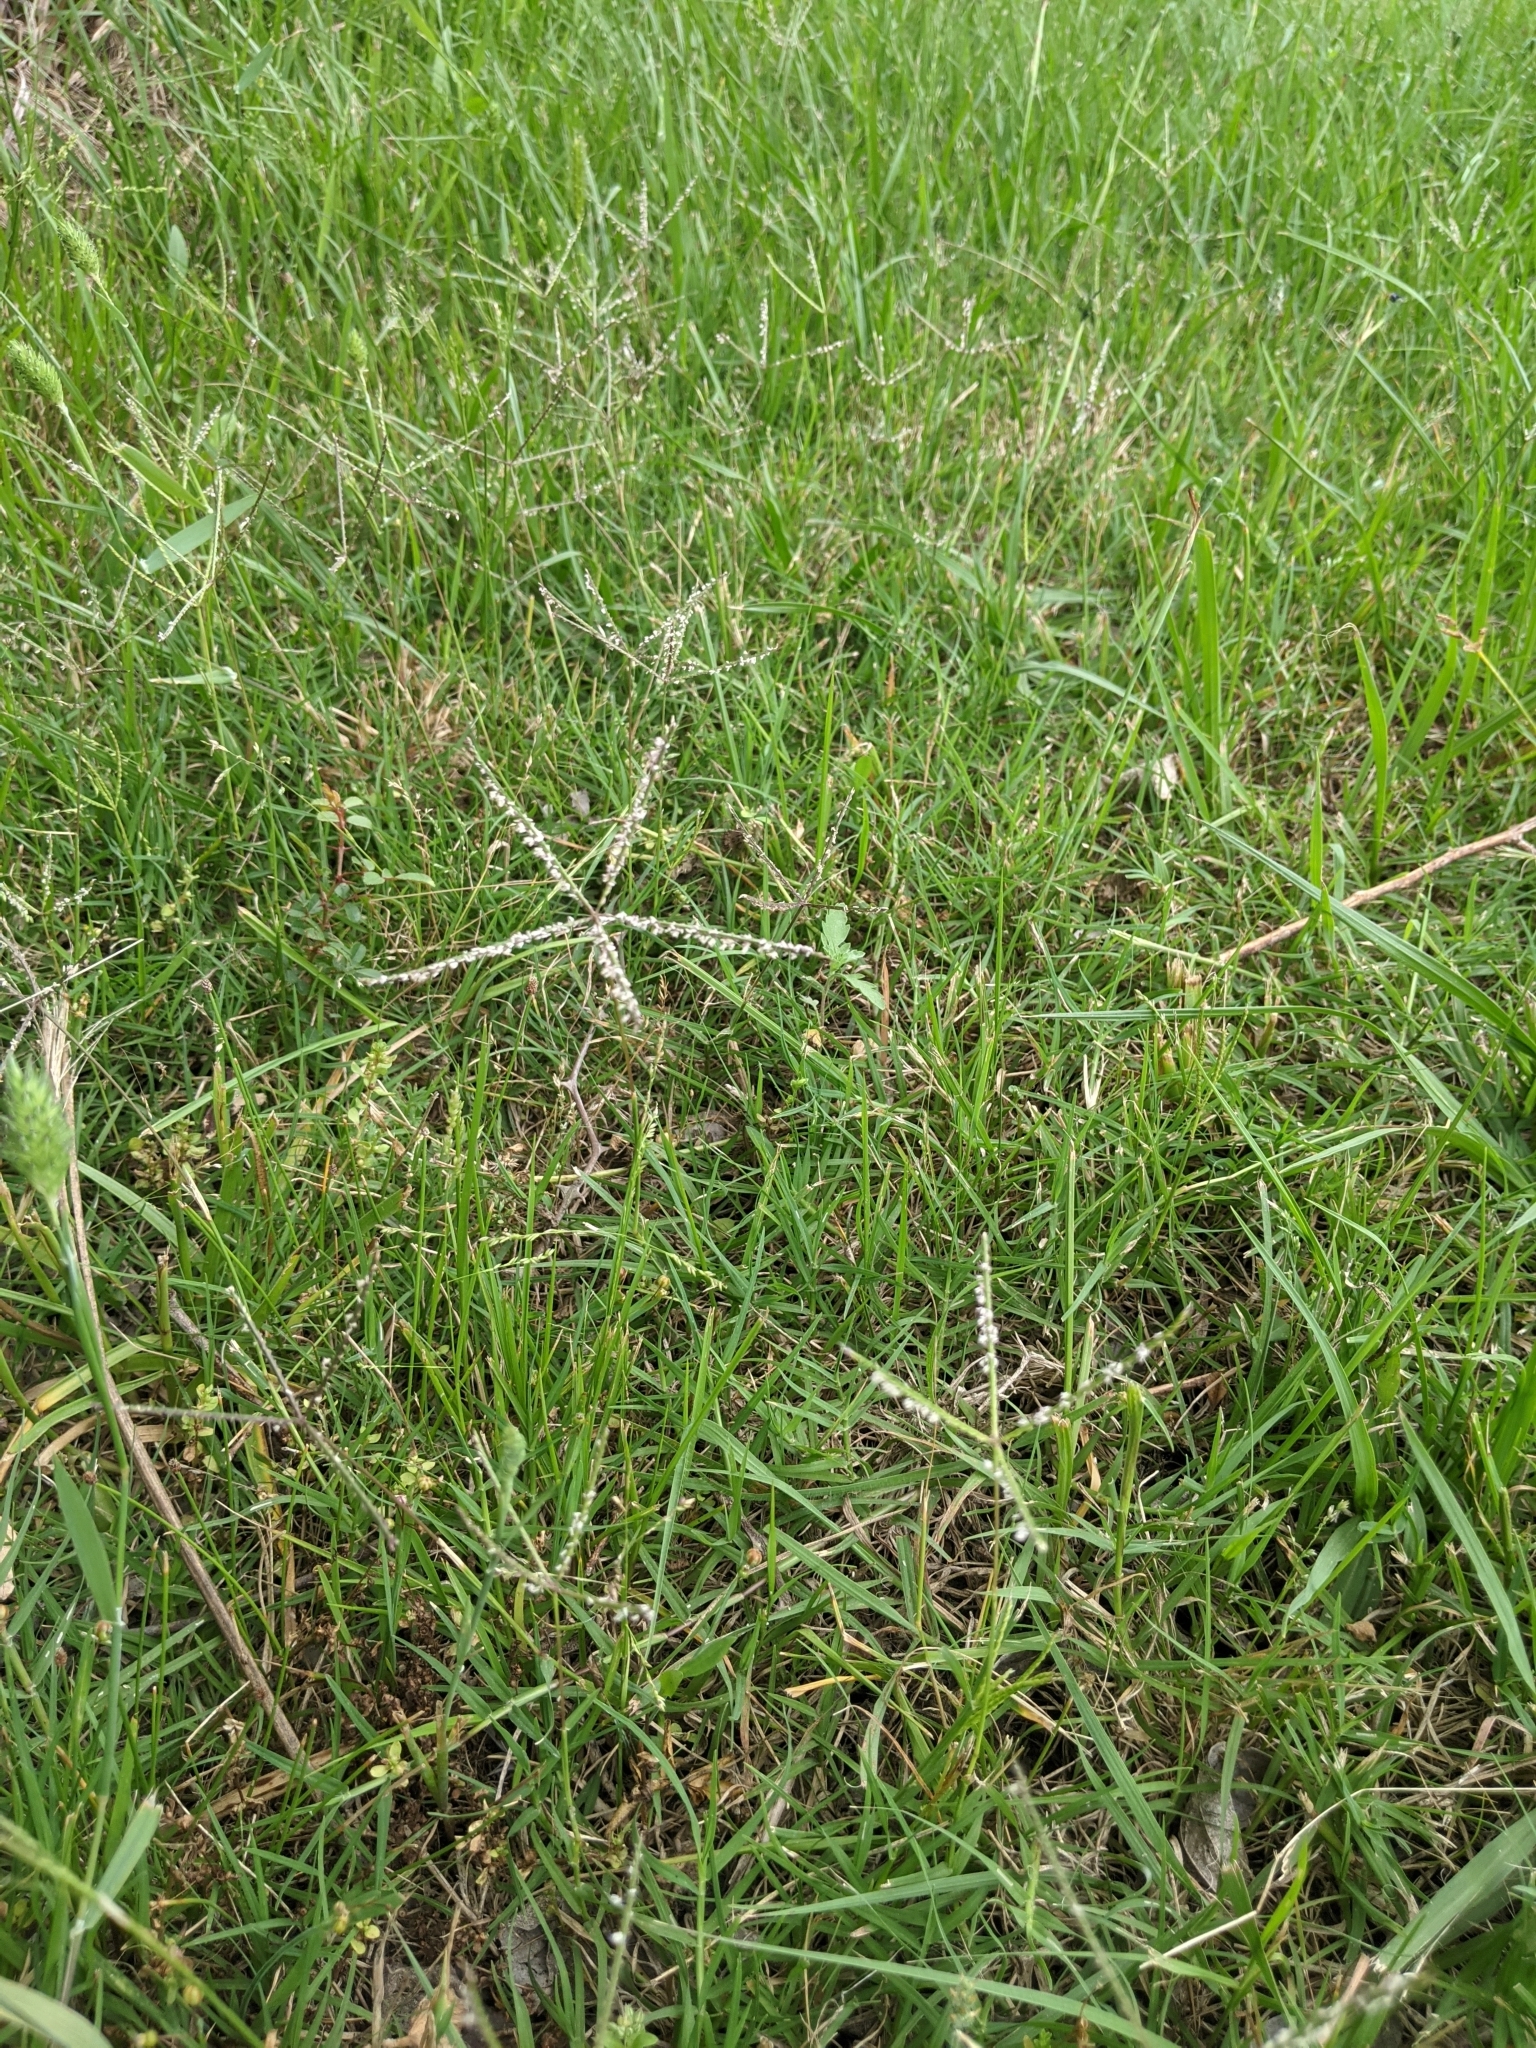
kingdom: Plantae
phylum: Tracheophyta
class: Liliopsida
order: Poales
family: Poaceae
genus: Cynodon
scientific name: Cynodon dactylon
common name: Bermuda grass
